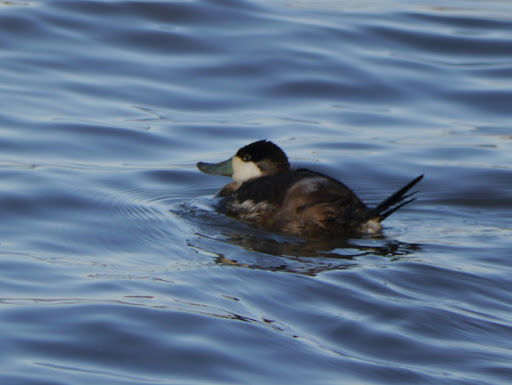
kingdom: Animalia
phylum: Chordata
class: Aves
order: Anseriformes
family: Anatidae
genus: Oxyura
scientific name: Oxyura jamaicensis
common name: Ruddy duck
